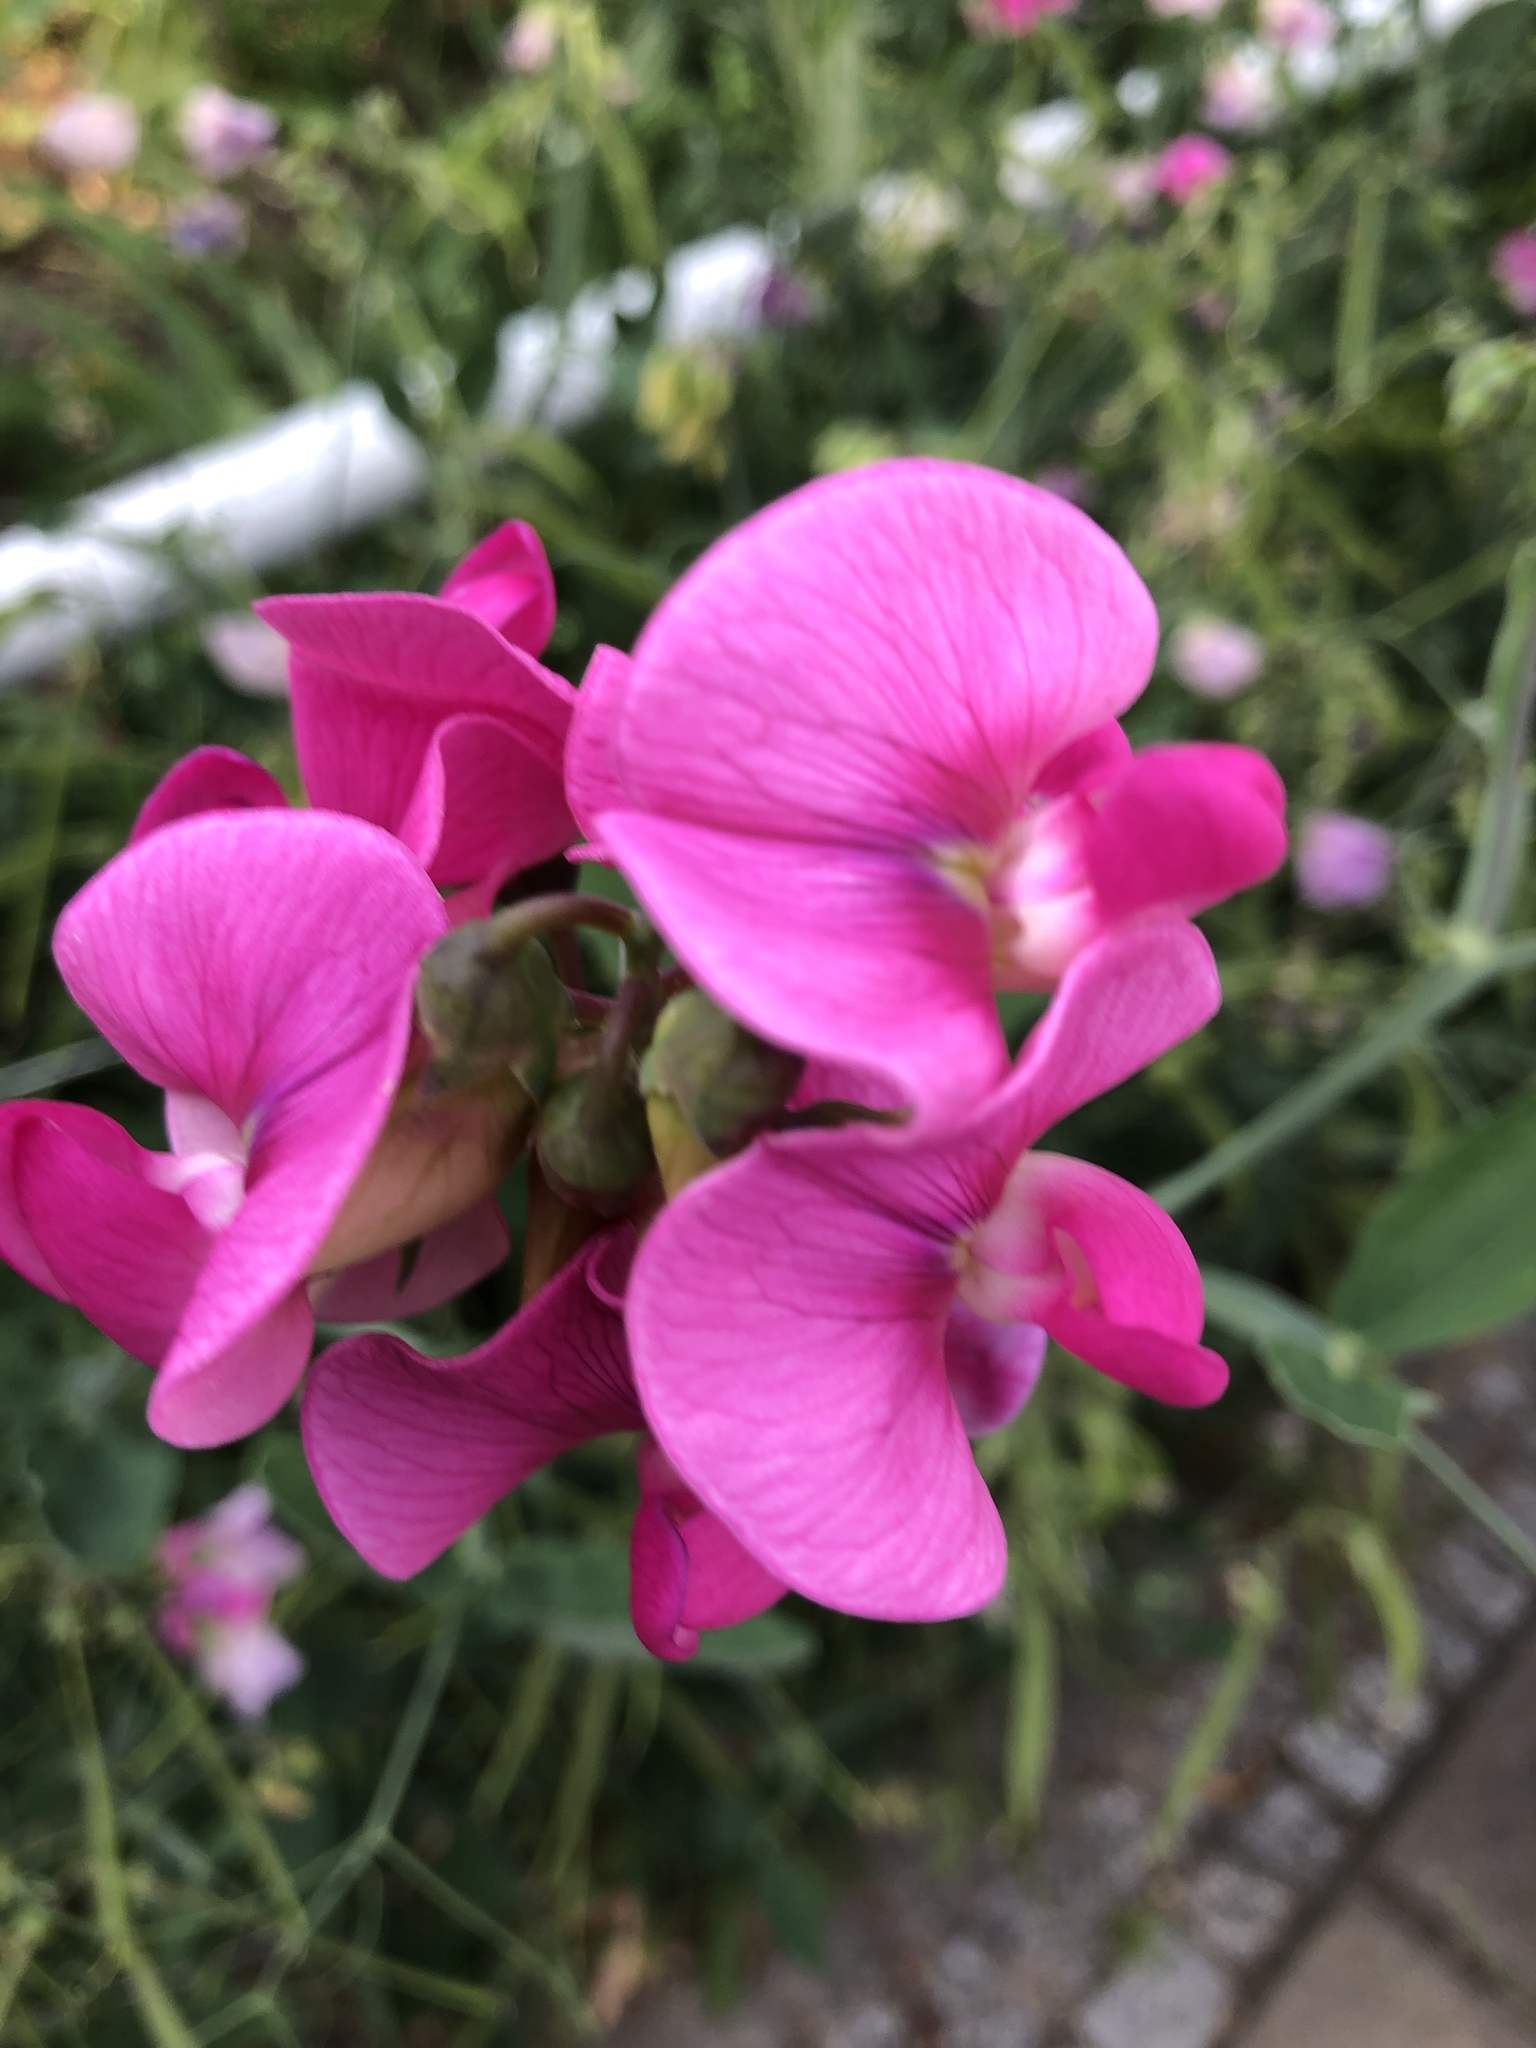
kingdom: Plantae
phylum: Tracheophyta
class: Magnoliopsida
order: Fabales
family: Fabaceae
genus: Lathyrus
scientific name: Lathyrus latifolius
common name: Perennial pea
